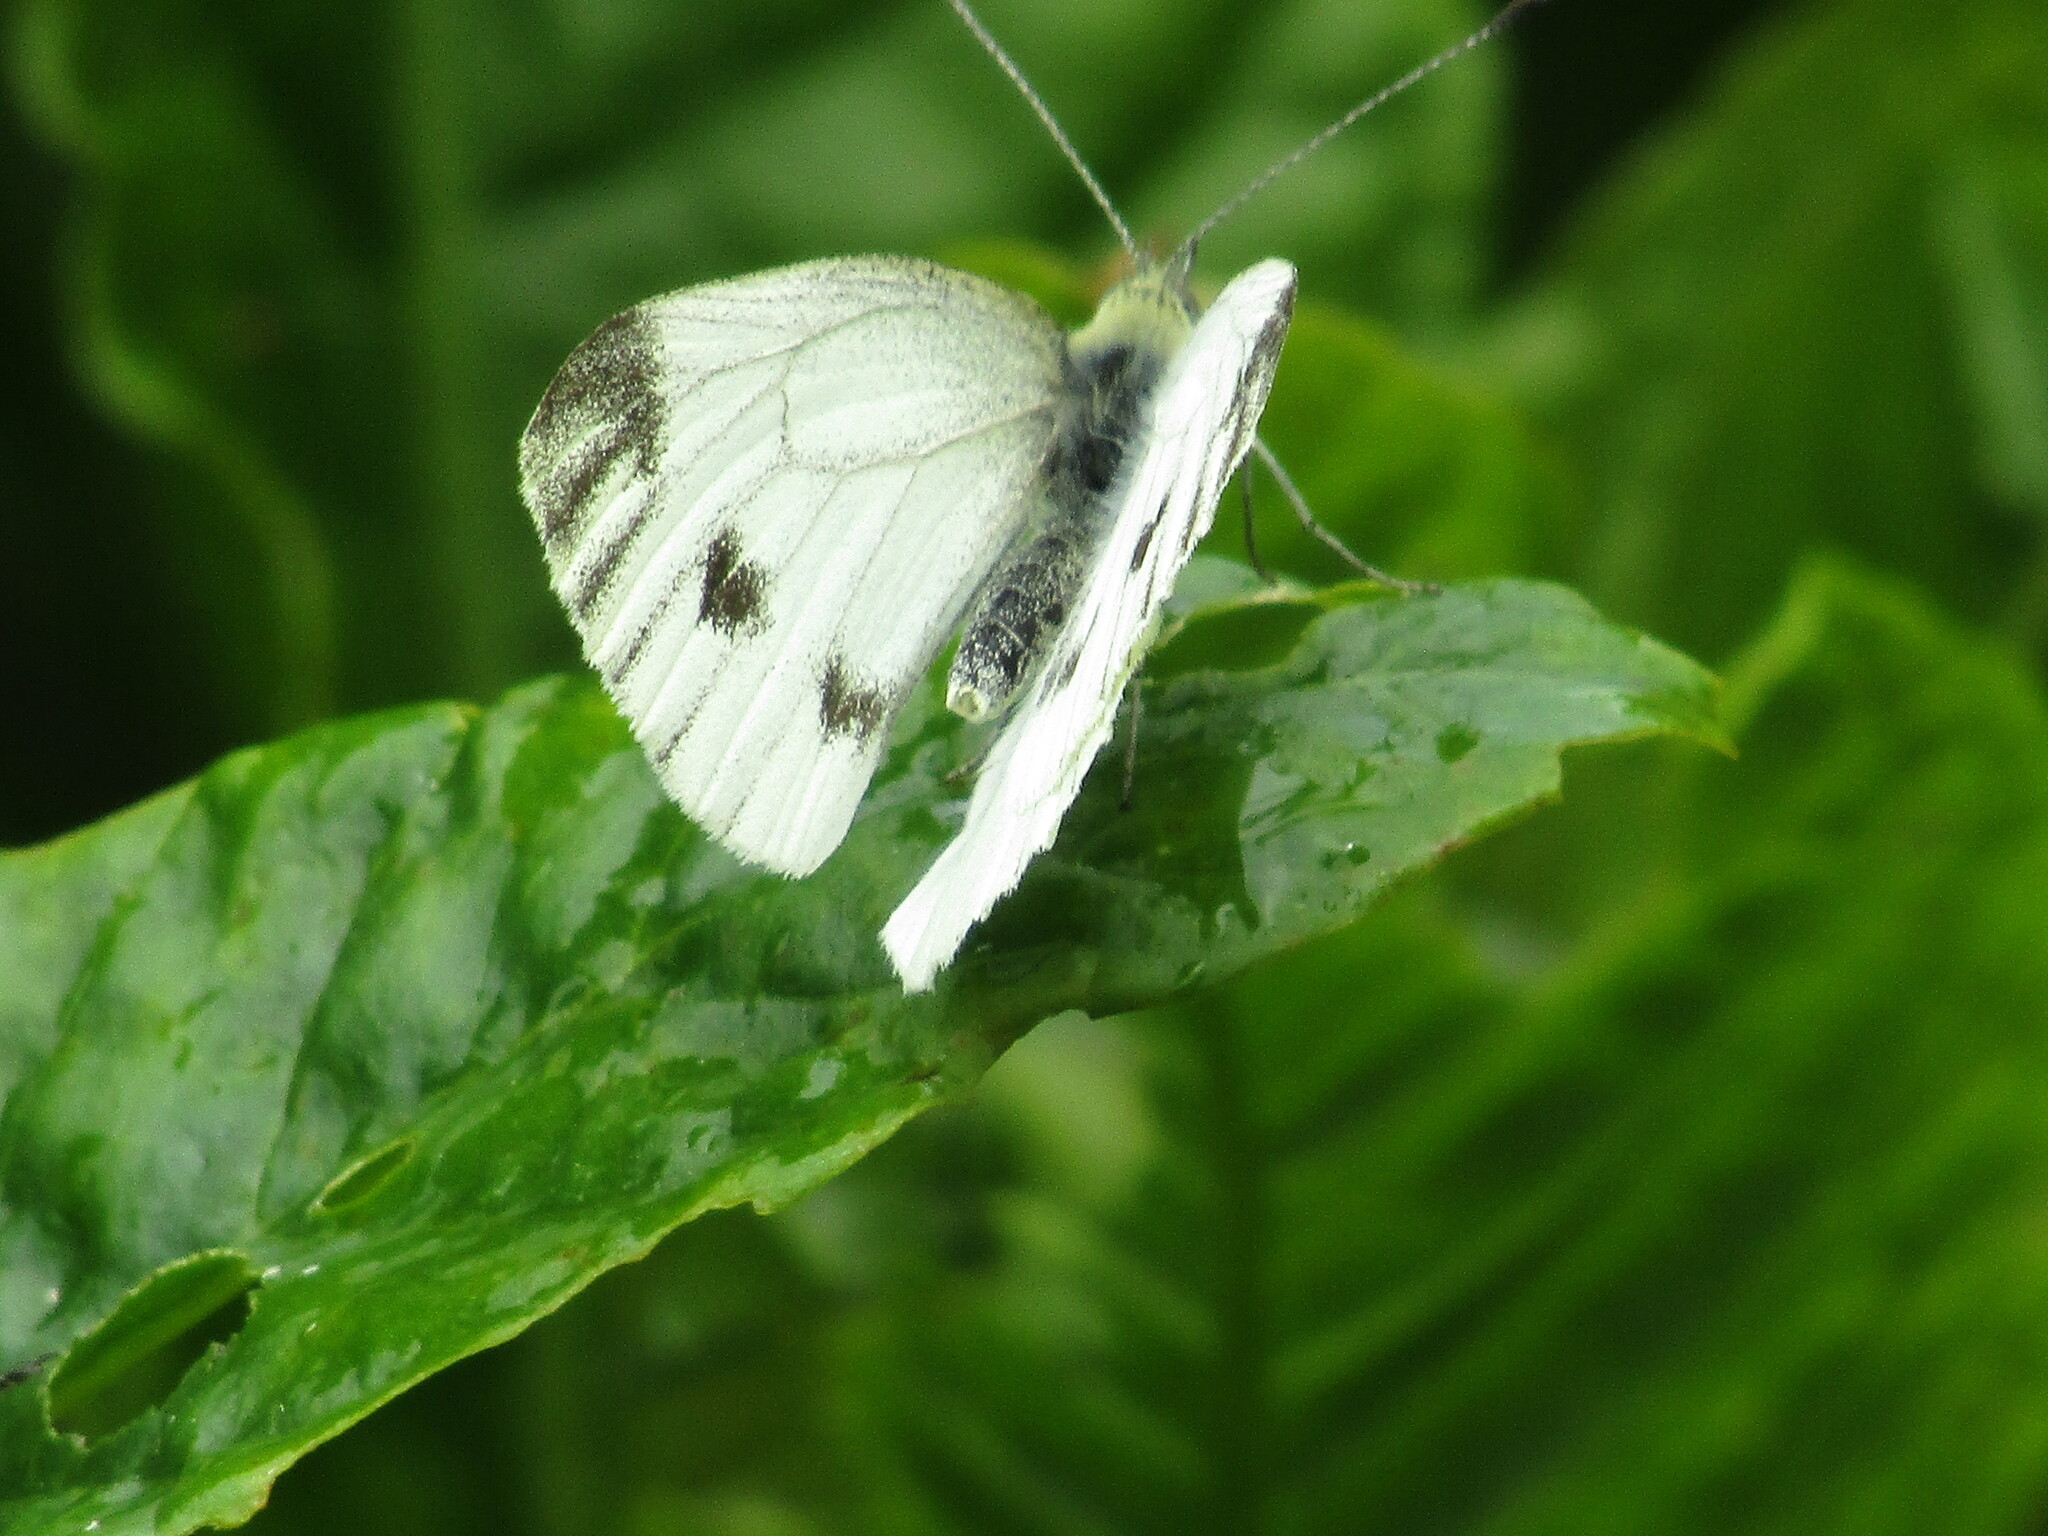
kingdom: Animalia
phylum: Arthropoda
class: Insecta
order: Lepidoptera
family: Pieridae
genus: Pieris
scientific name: Pieris napi
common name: Green-veined white
